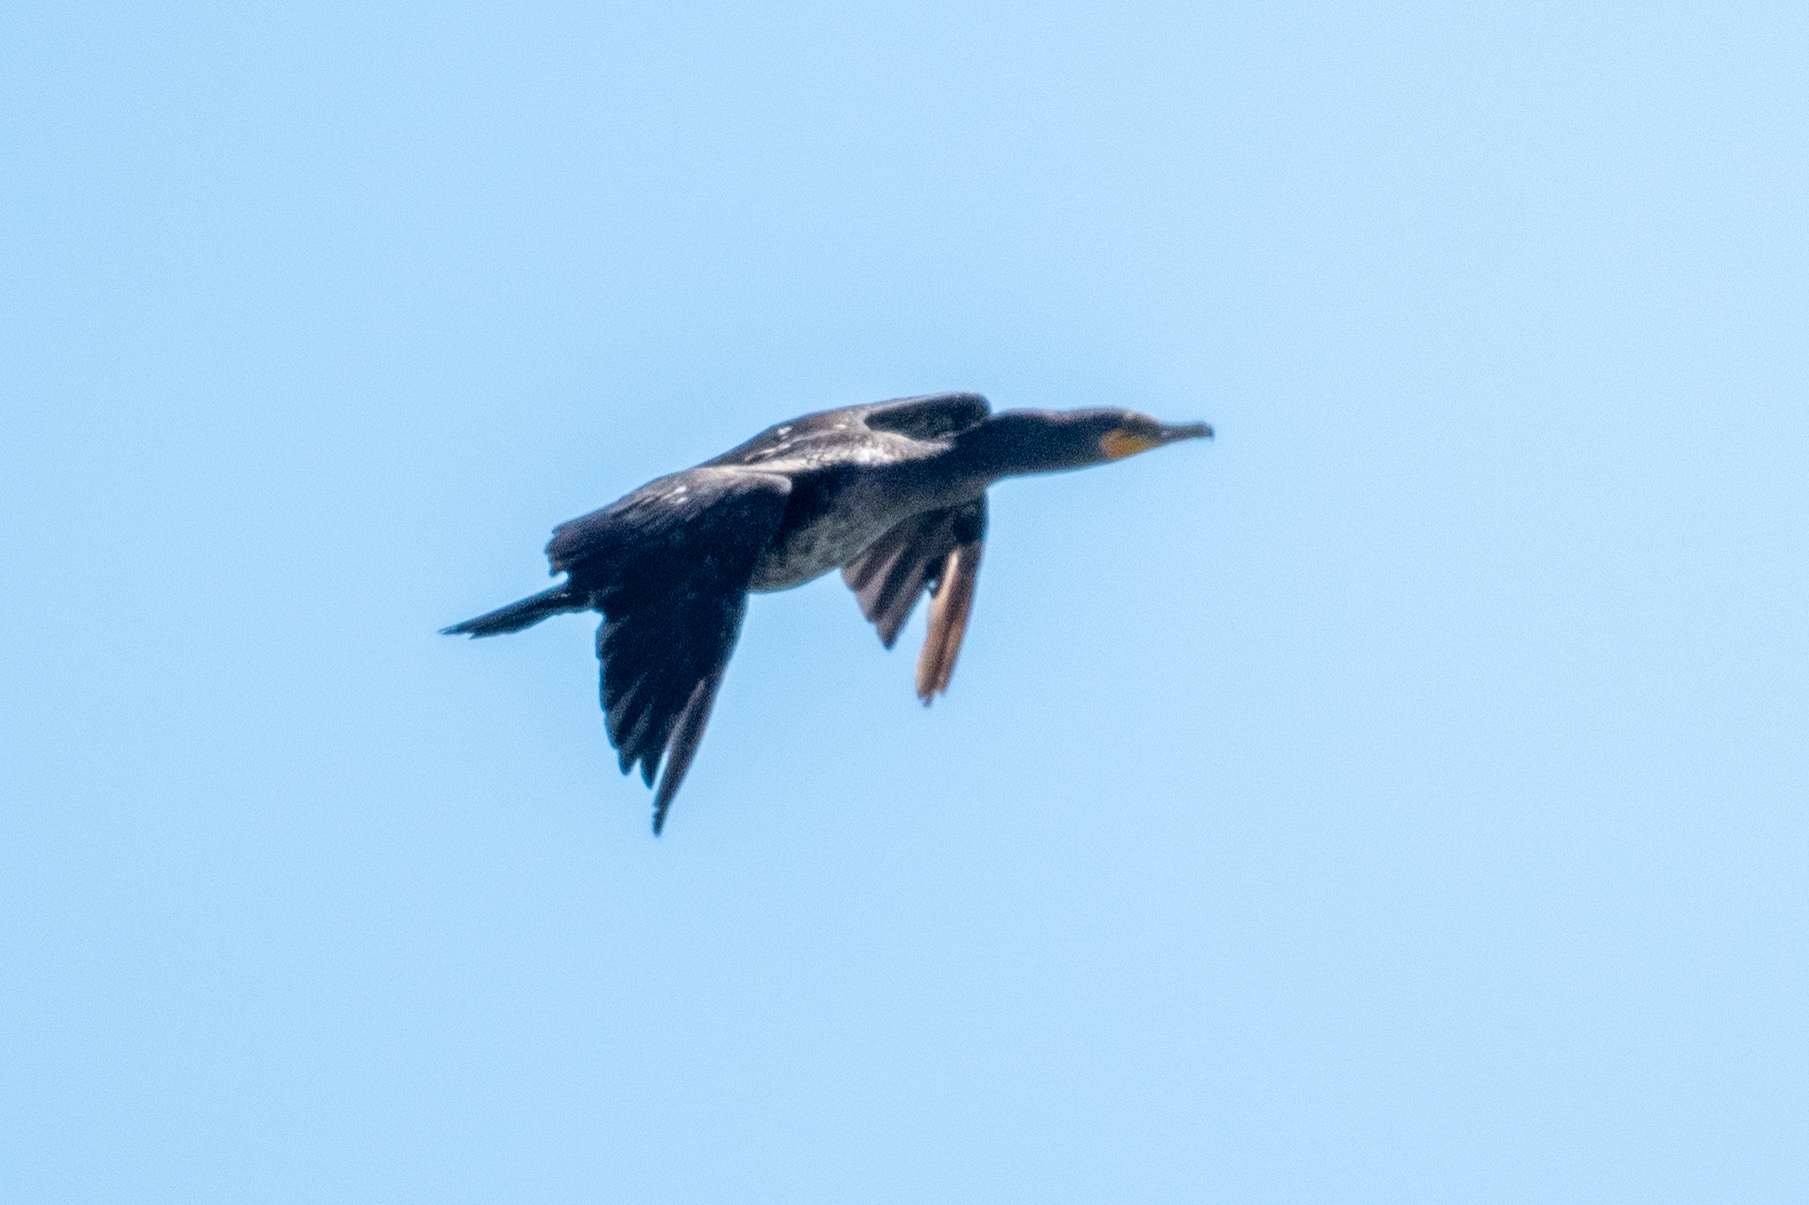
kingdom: Animalia
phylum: Chordata
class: Aves
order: Suliformes
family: Phalacrocoracidae
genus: Phalacrocorax
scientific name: Phalacrocorax auritus
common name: Double-crested cormorant
